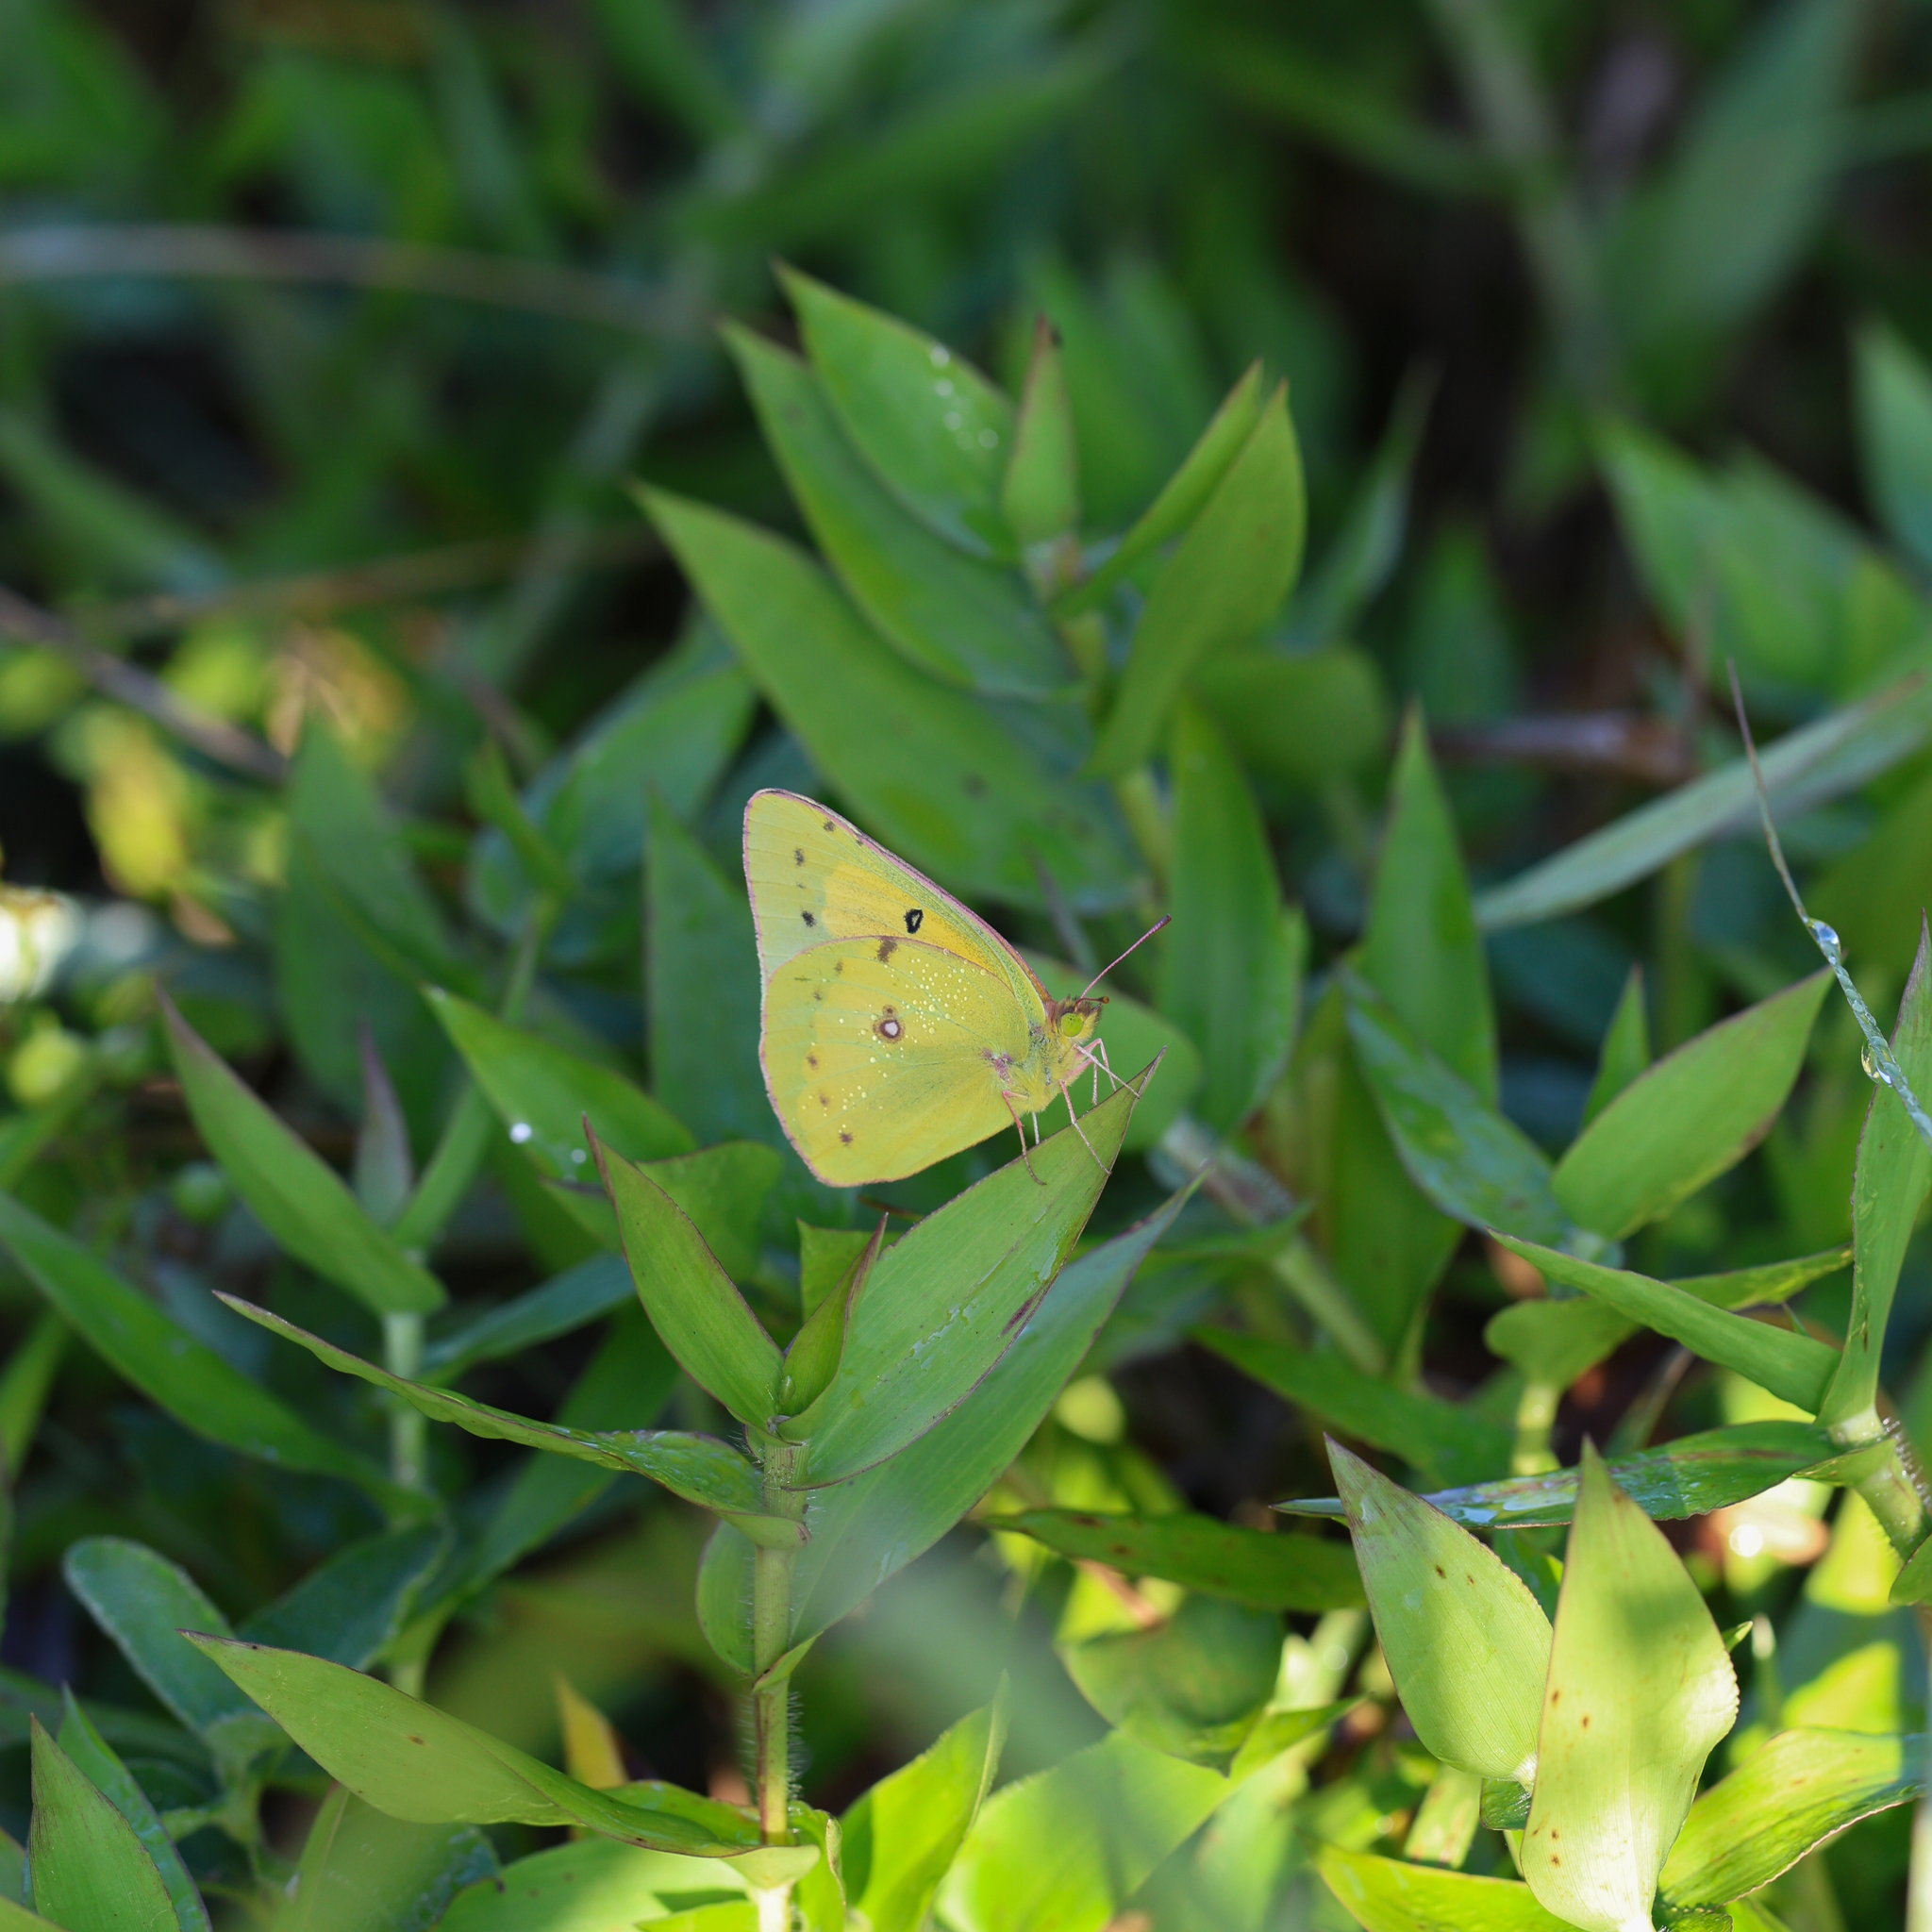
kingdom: Animalia
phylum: Arthropoda
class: Insecta
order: Lepidoptera
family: Pieridae
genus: Colias
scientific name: Colias eurytheme
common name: Alfalfa butterfly
